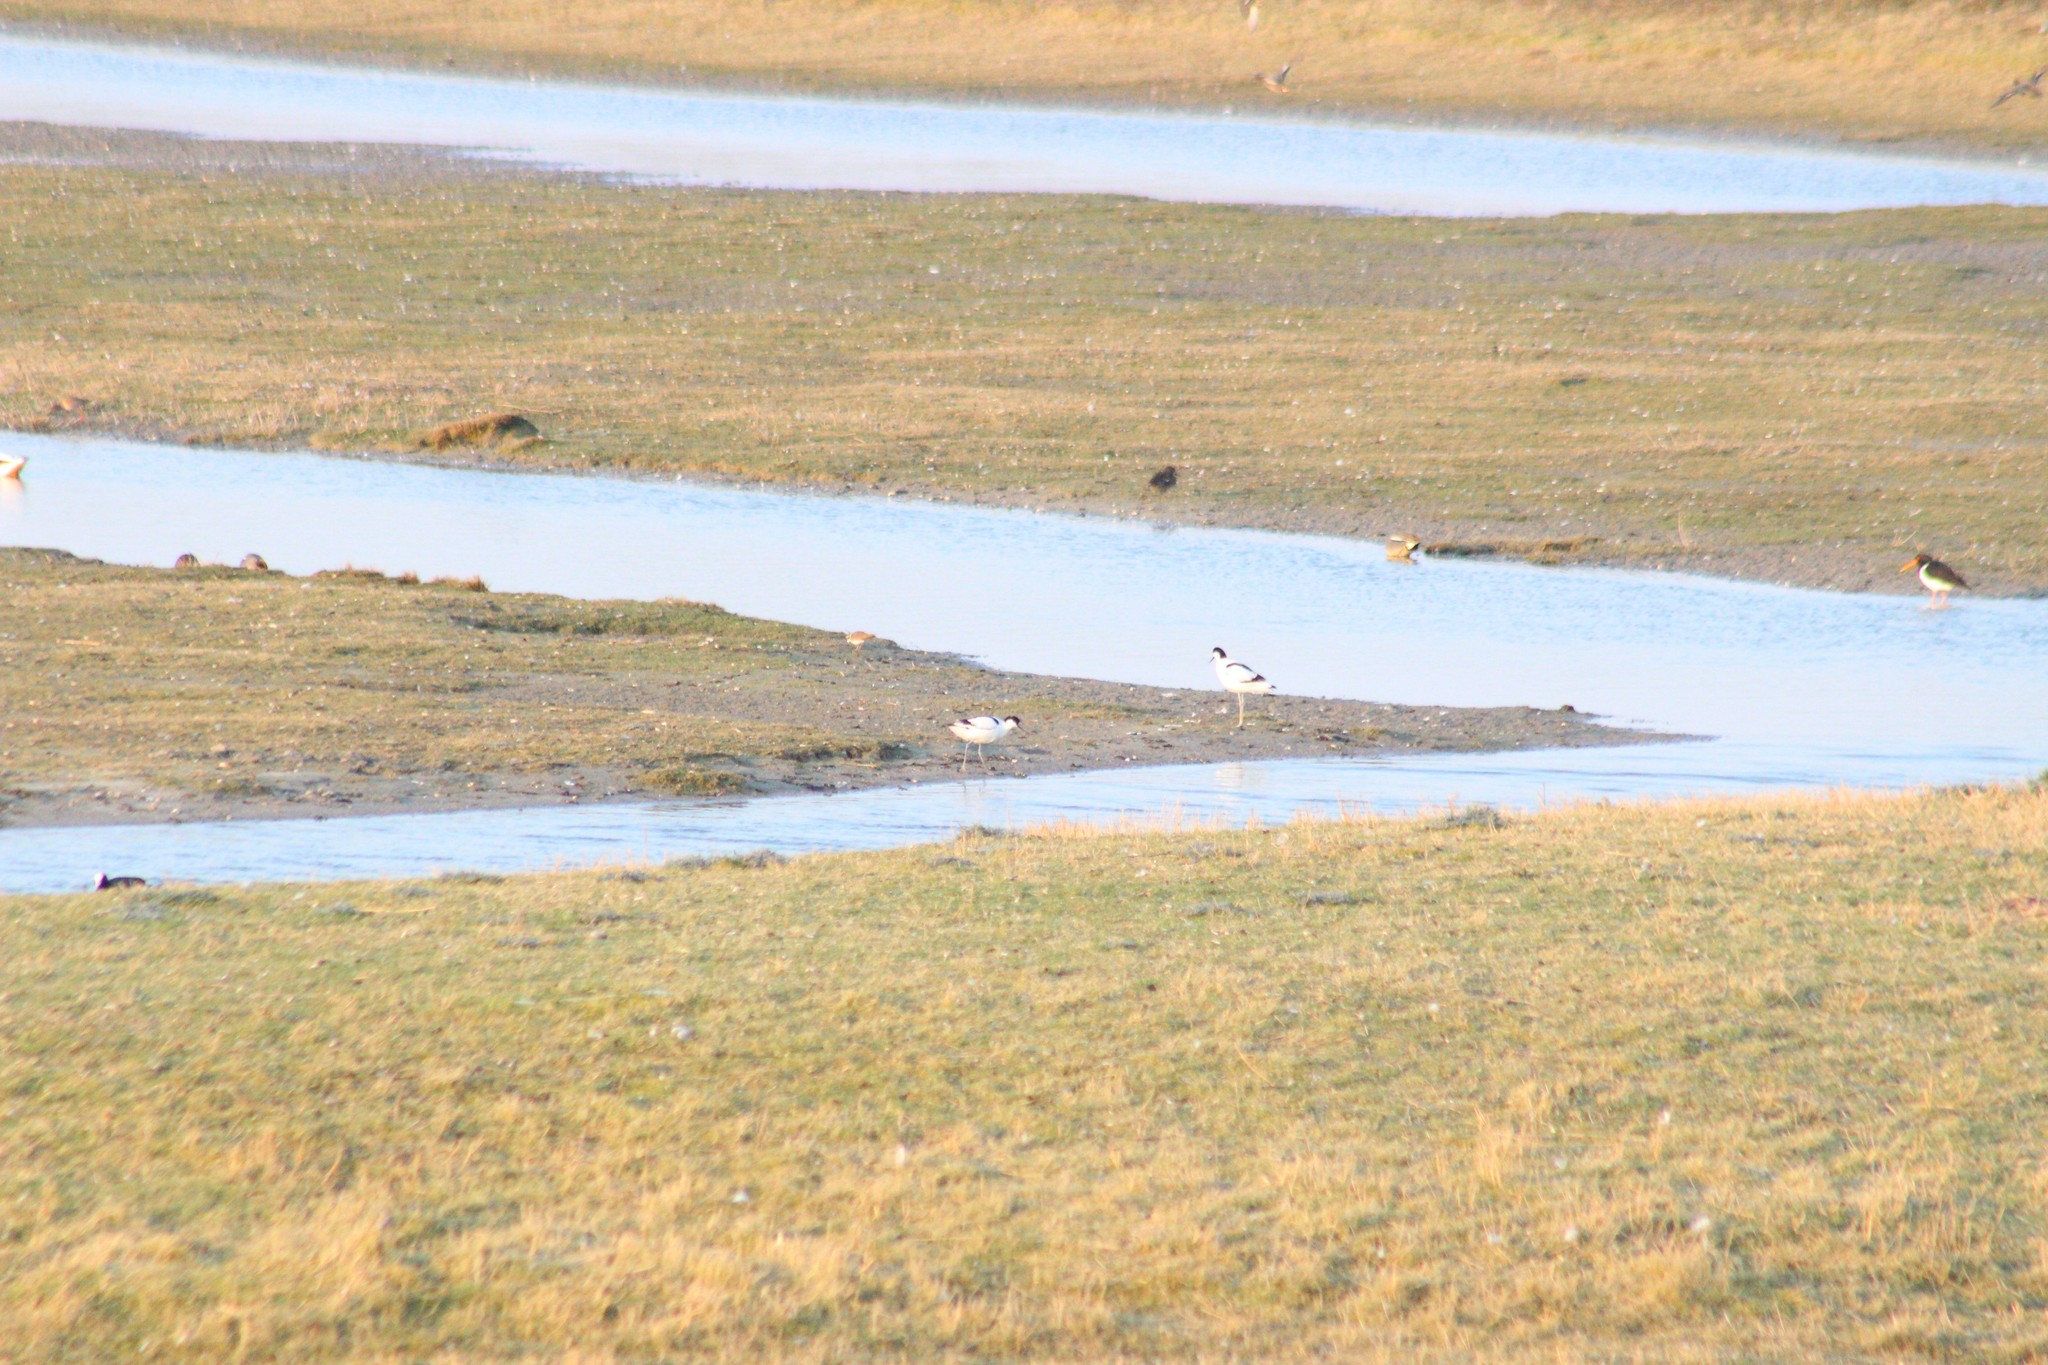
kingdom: Animalia
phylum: Chordata
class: Aves
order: Charadriiformes
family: Recurvirostridae
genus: Recurvirostra
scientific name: Recurvirostra avosetta
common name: Pied avocet
